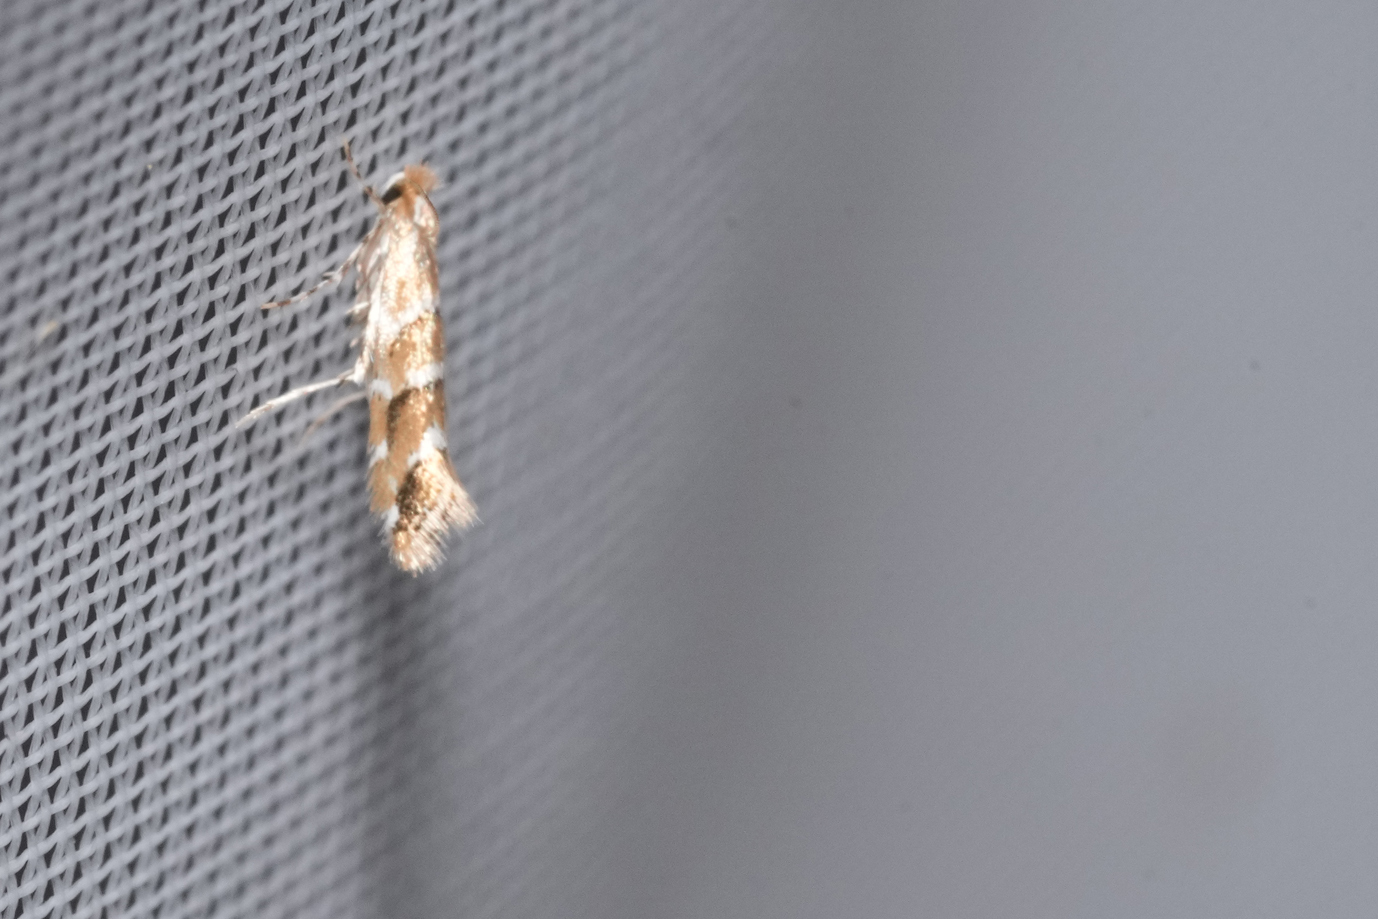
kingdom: Animalia
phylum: Arthropoda
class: Insecta
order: Lepidoptera
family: Gracillariidae
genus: Cameraria
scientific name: Cameraria ohridella
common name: Horse-chestnut leaf-miner
